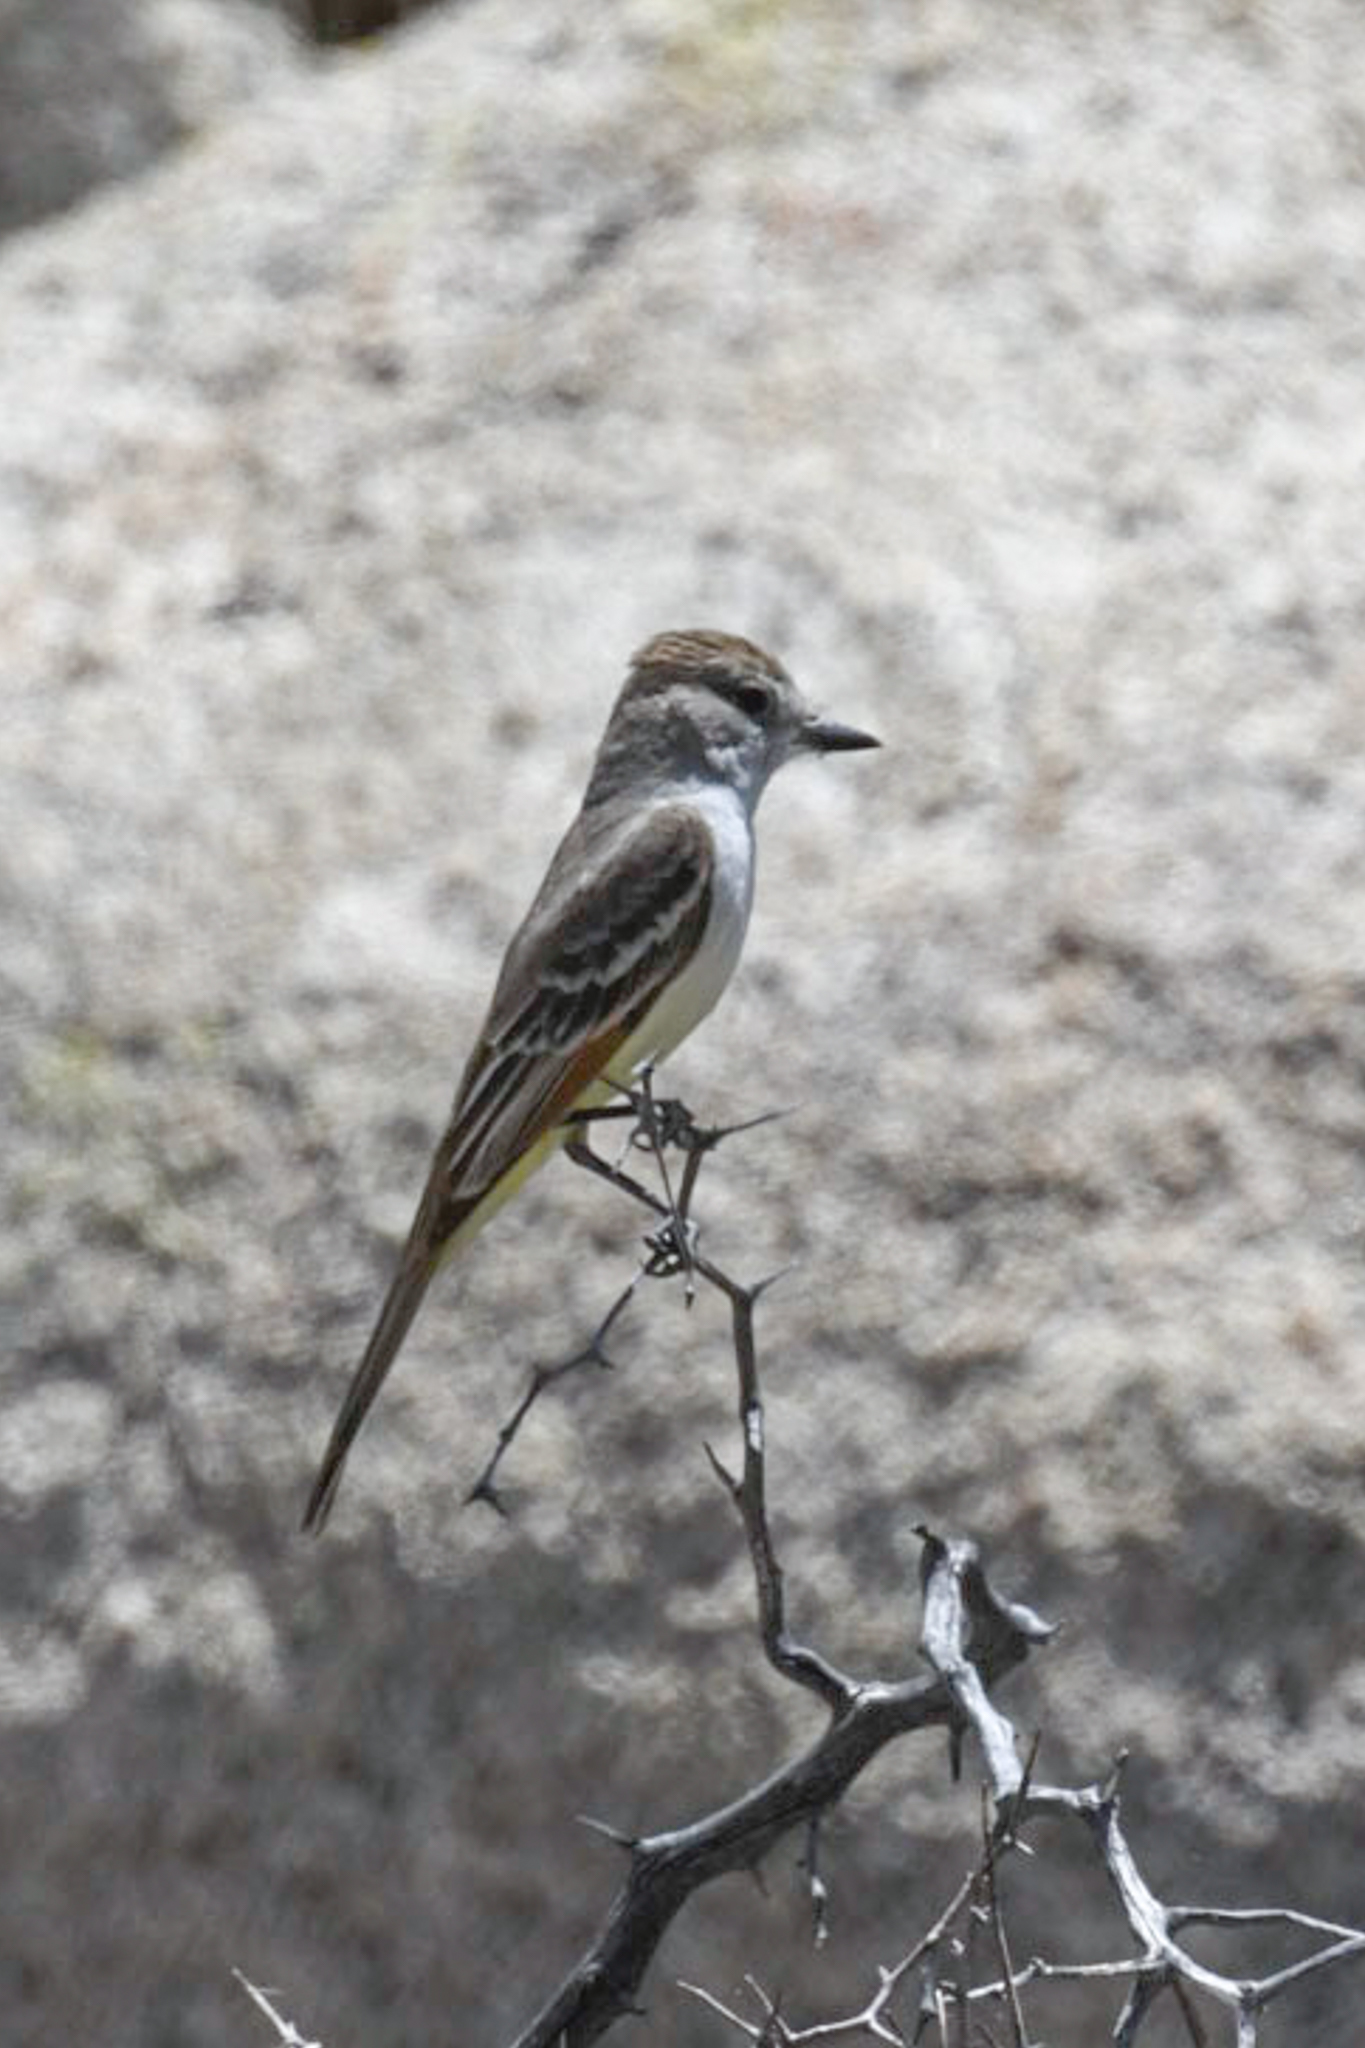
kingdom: Animalia
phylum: Chordata
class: Aves
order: Passeriformes
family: Tyrannidae
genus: Myiarchus
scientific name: Myiarchus cinerascens
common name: Ash-throated flycatcher
